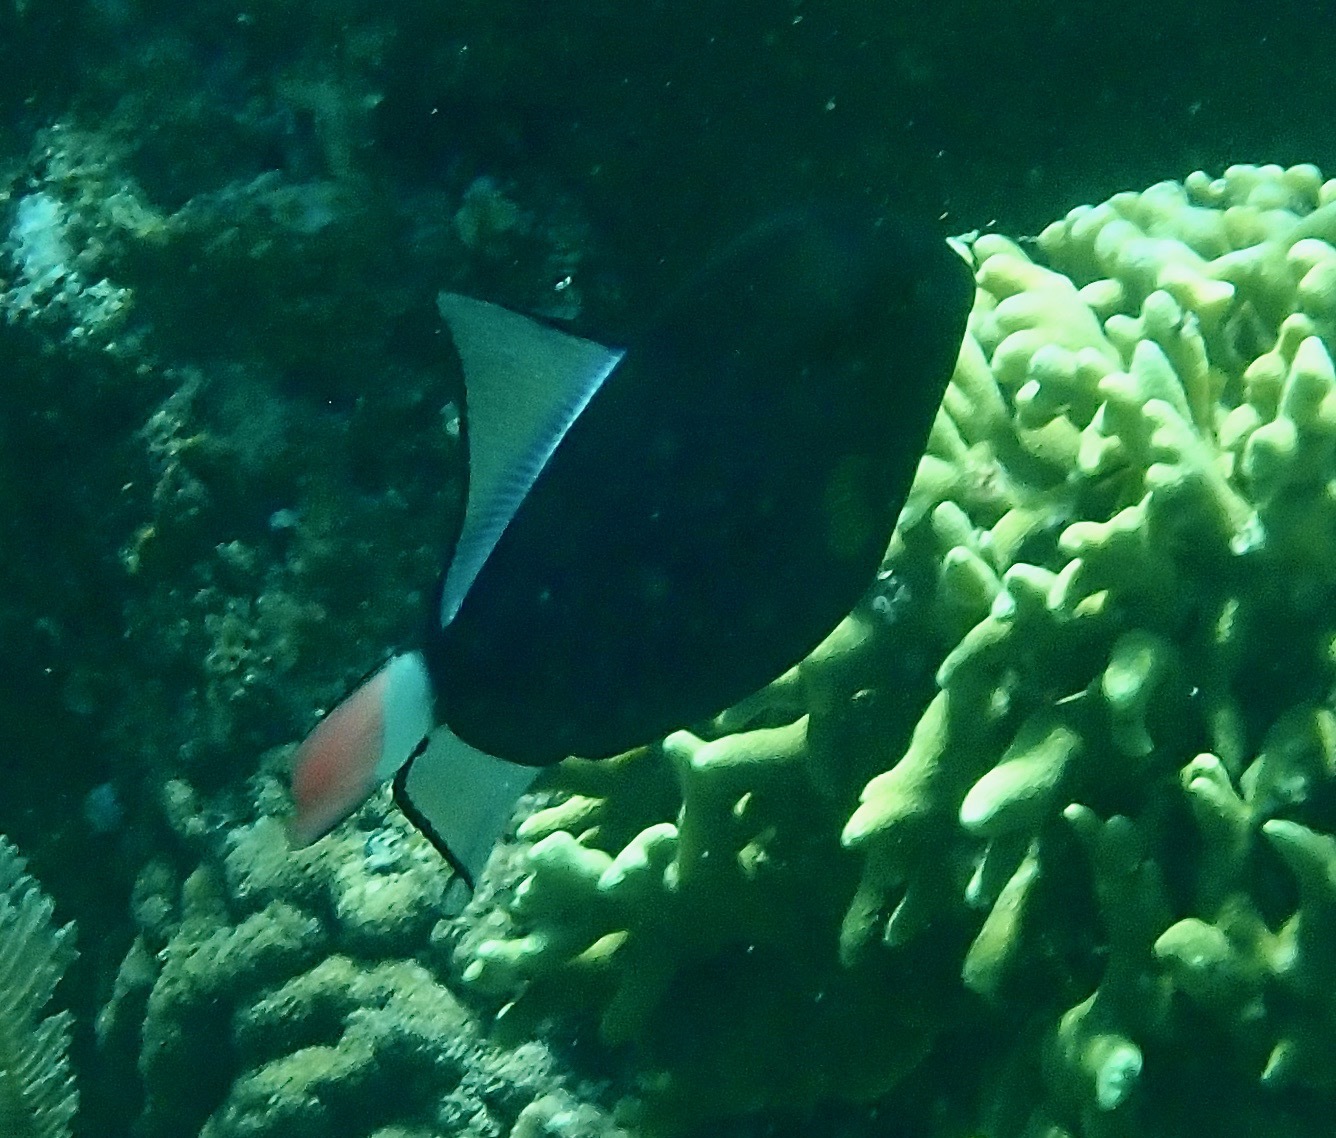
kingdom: Animalia
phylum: Chordata
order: Tetraodontiformes
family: Balistidae
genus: Melichthys
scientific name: Melichthys vidua
